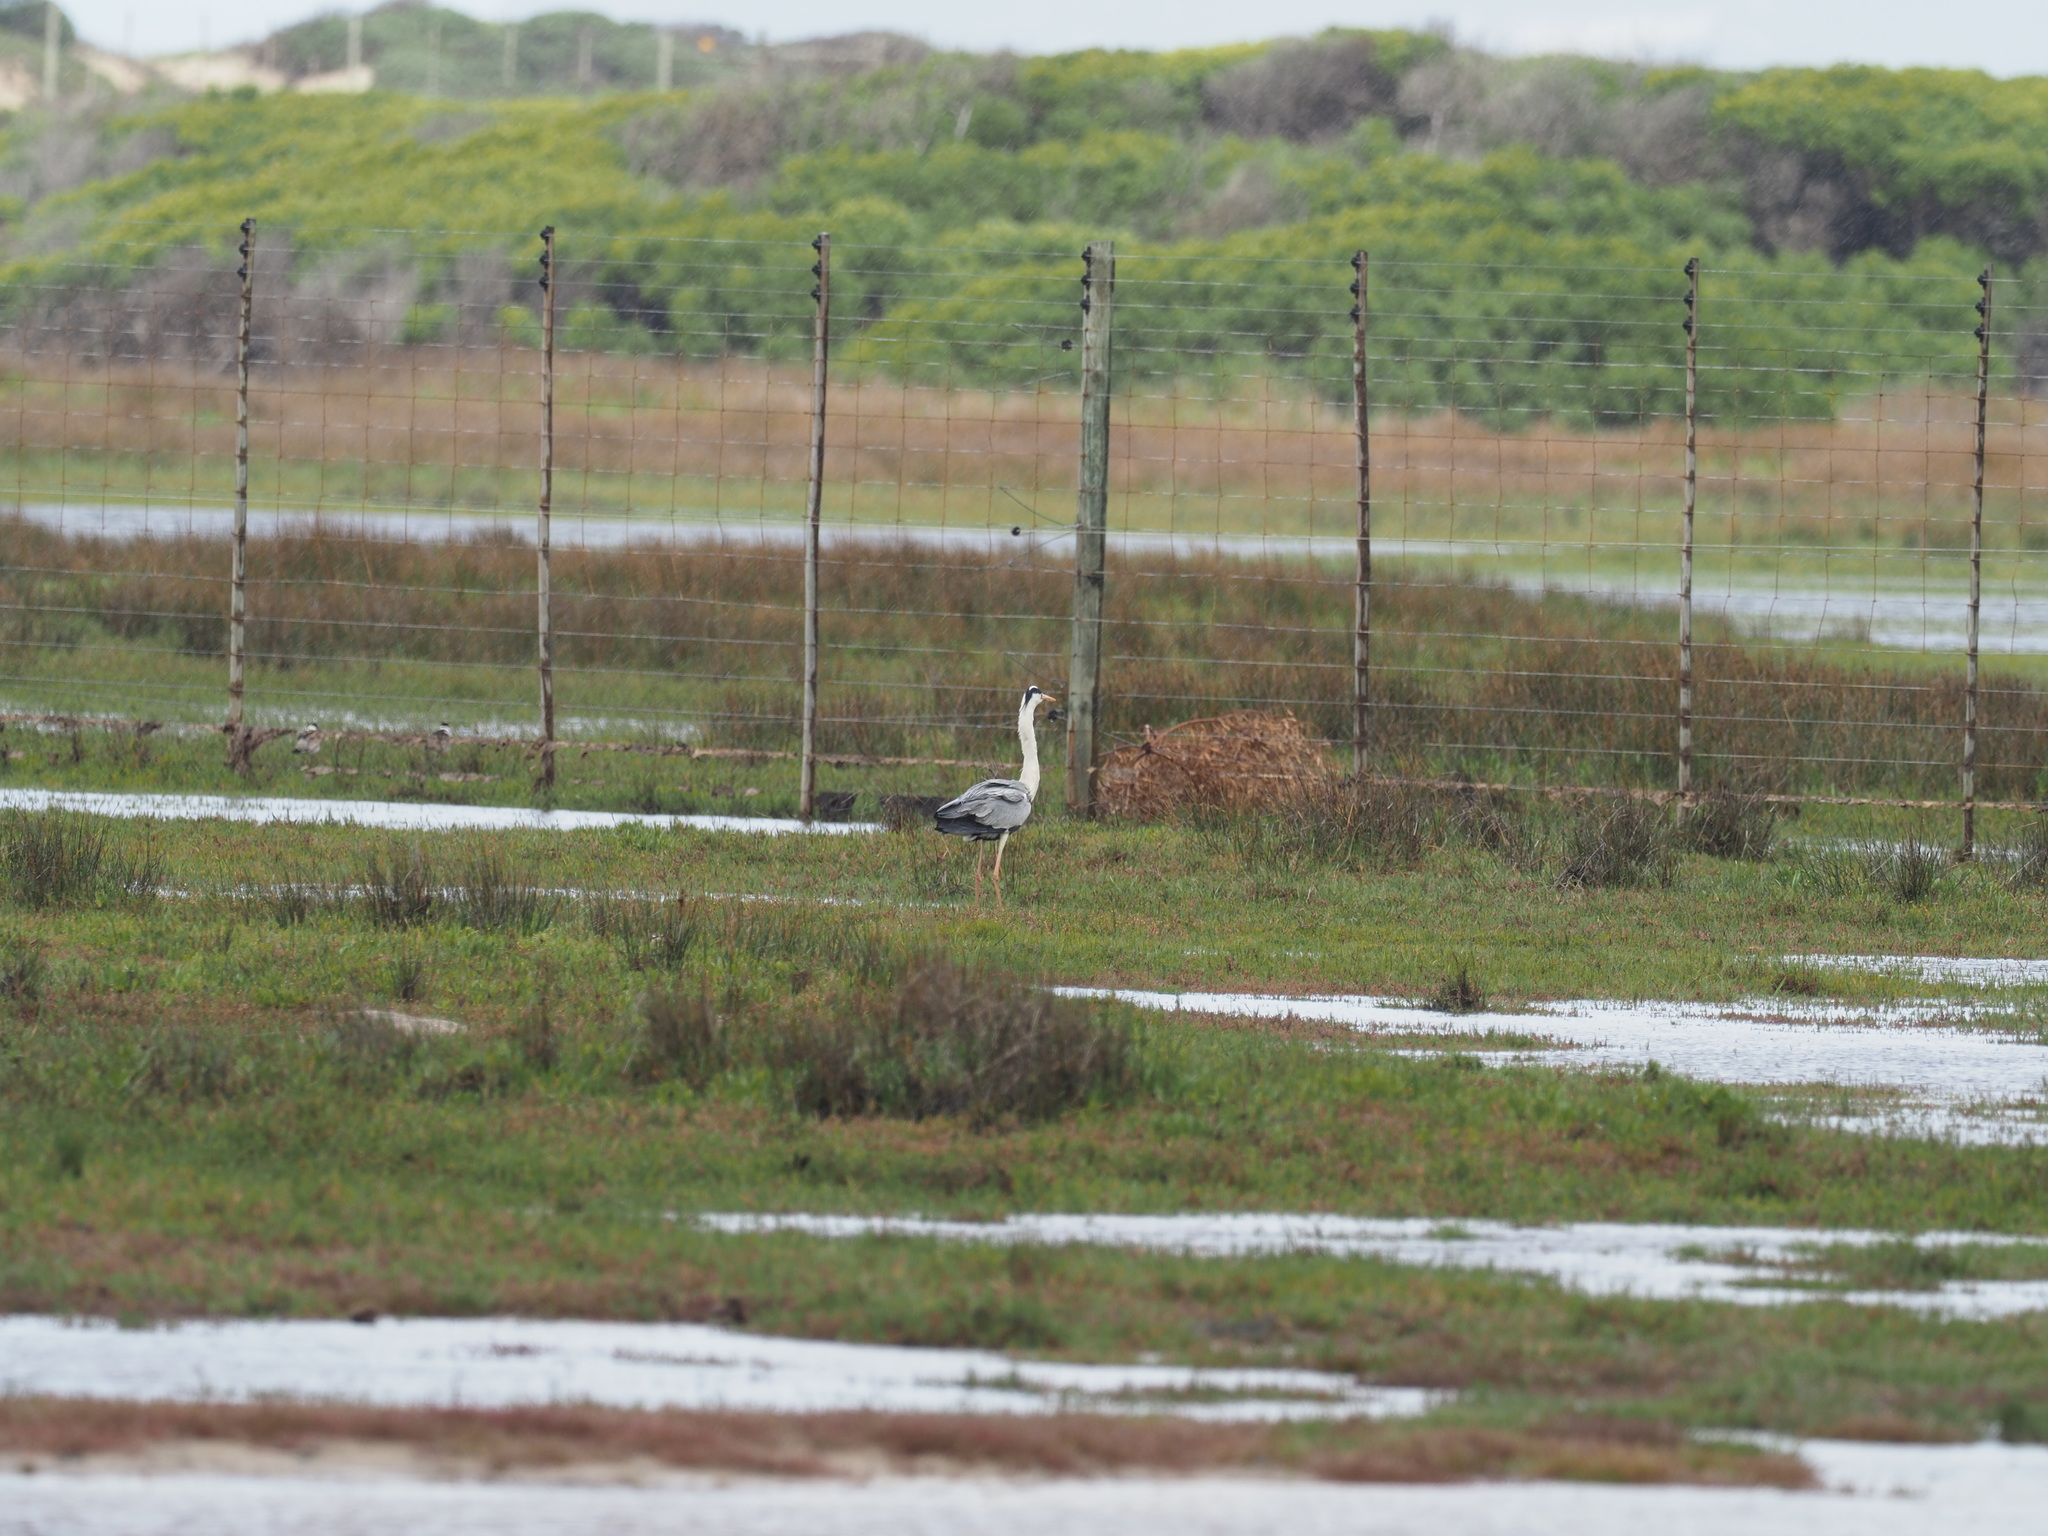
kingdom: Animalia
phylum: Chordata
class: Aves
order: Pelecaniformes
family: Ardeidae
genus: Ardea
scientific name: Ardea cinerea
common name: Grey heron
